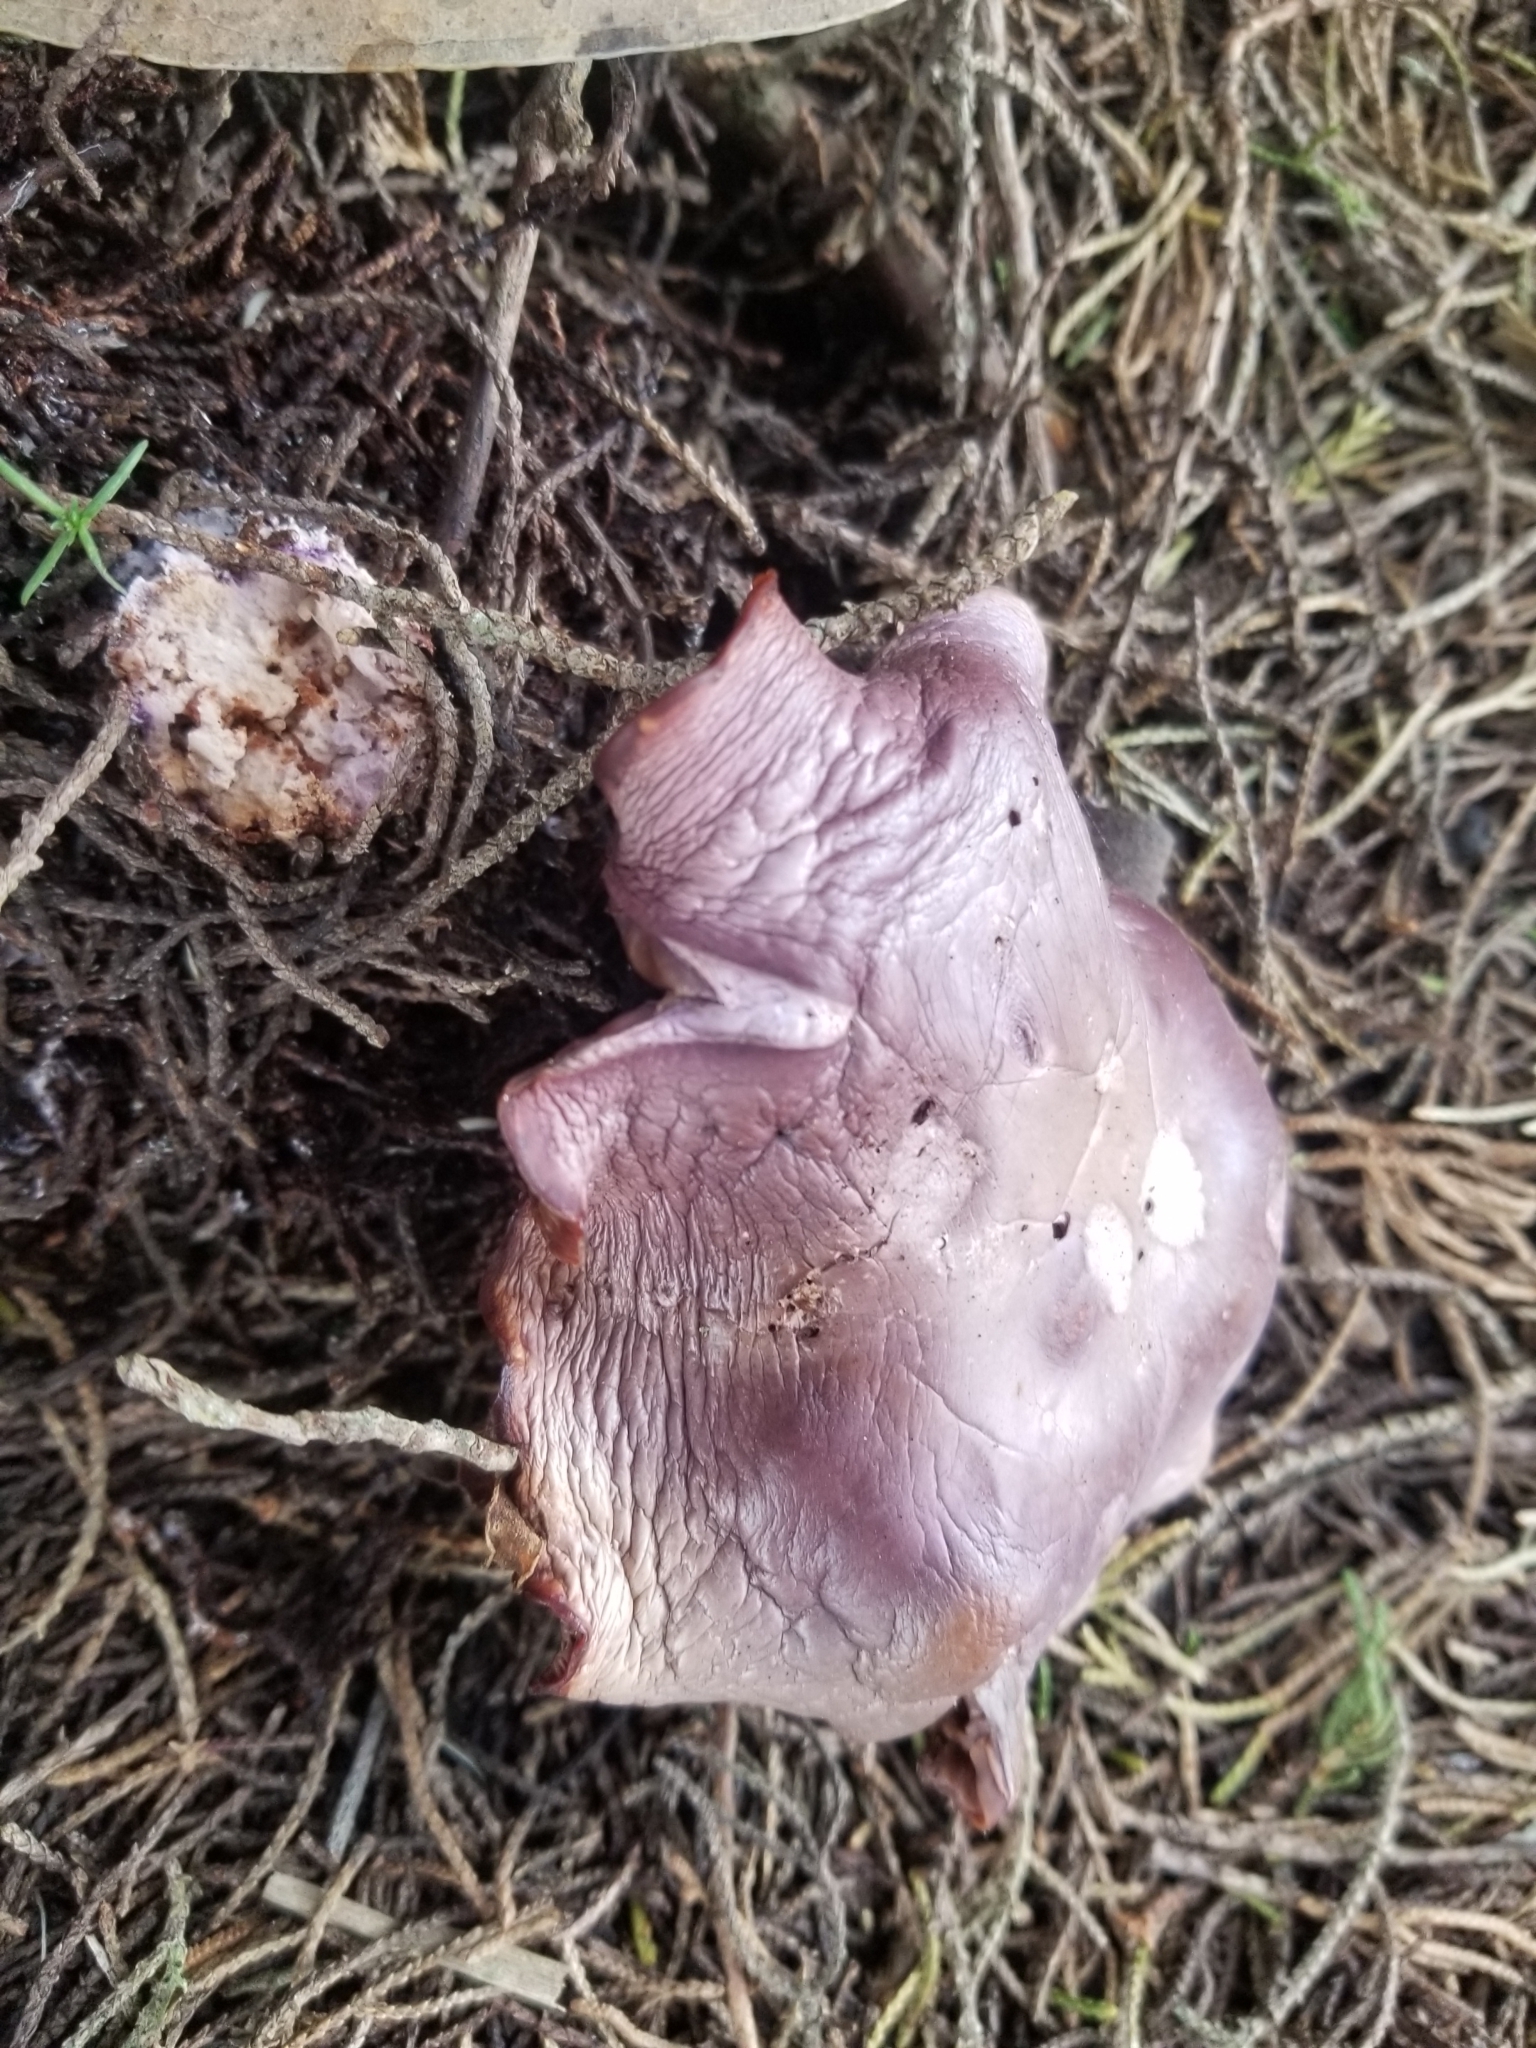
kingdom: Fungi
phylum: Basidiomycota
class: Agaricomycetes
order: Agaricales
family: Tricholomataceae
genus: Collybia
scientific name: Collybia
